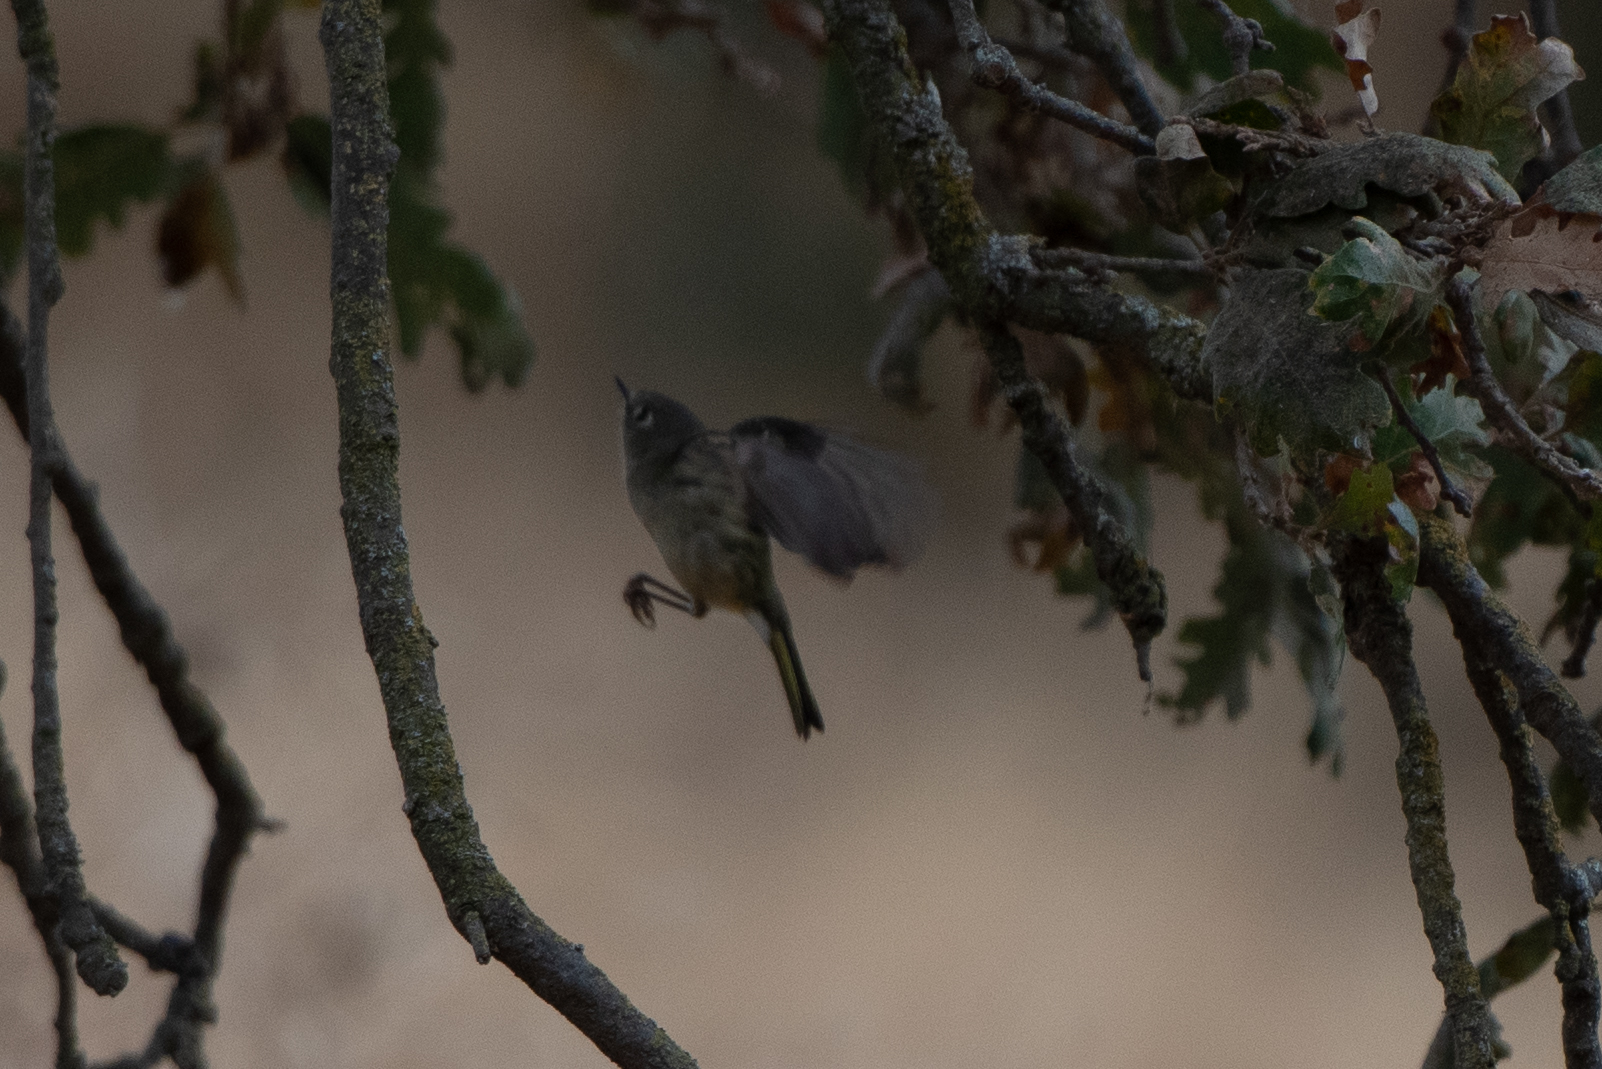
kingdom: Animalia
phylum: Chordata
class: Aves
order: Passeriformes
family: Regulidae
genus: Regulus
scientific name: Regulus calendula
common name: Ruby-crowned kinglet
